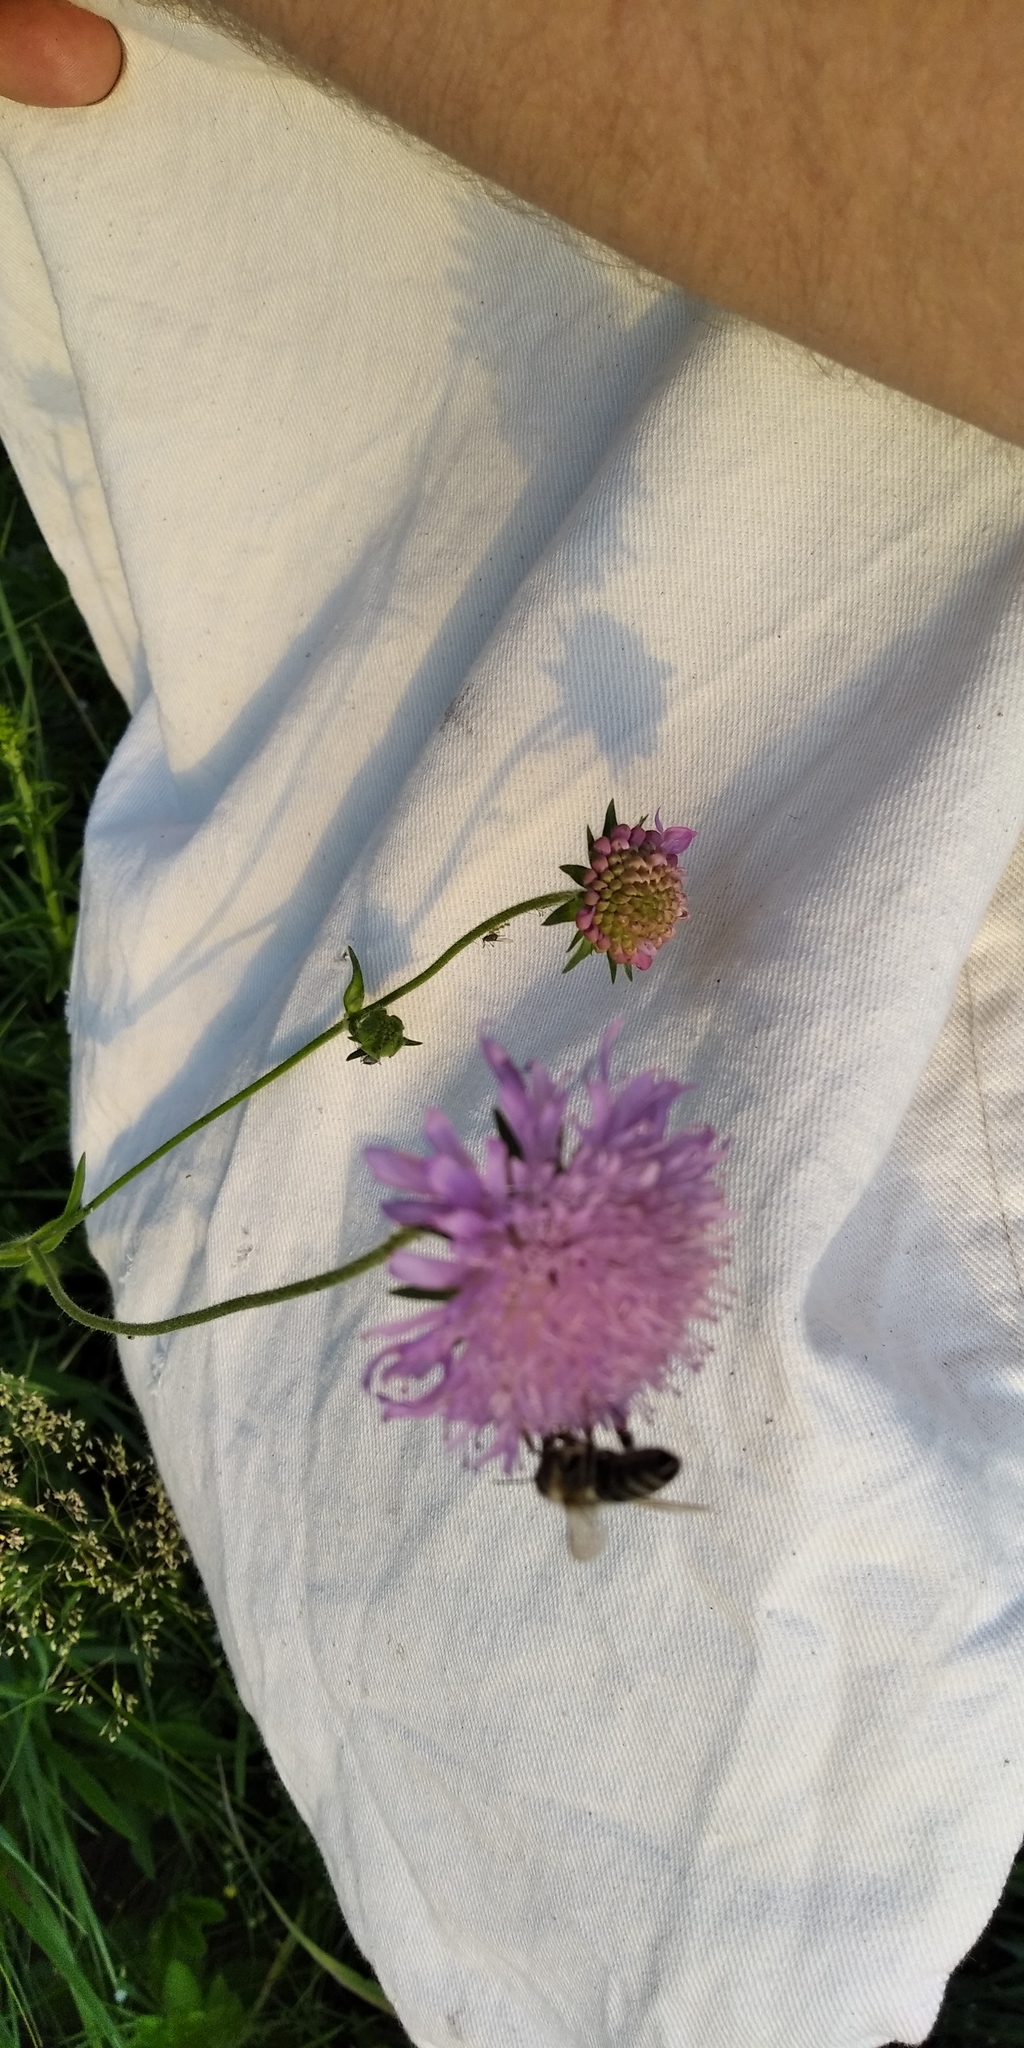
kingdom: Plantae
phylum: Tracheophyta
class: Magnoliopsida
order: Dipsacales
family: Caprifoliaceae
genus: Knautia
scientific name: Knautia arvensis
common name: Field scabiosa
